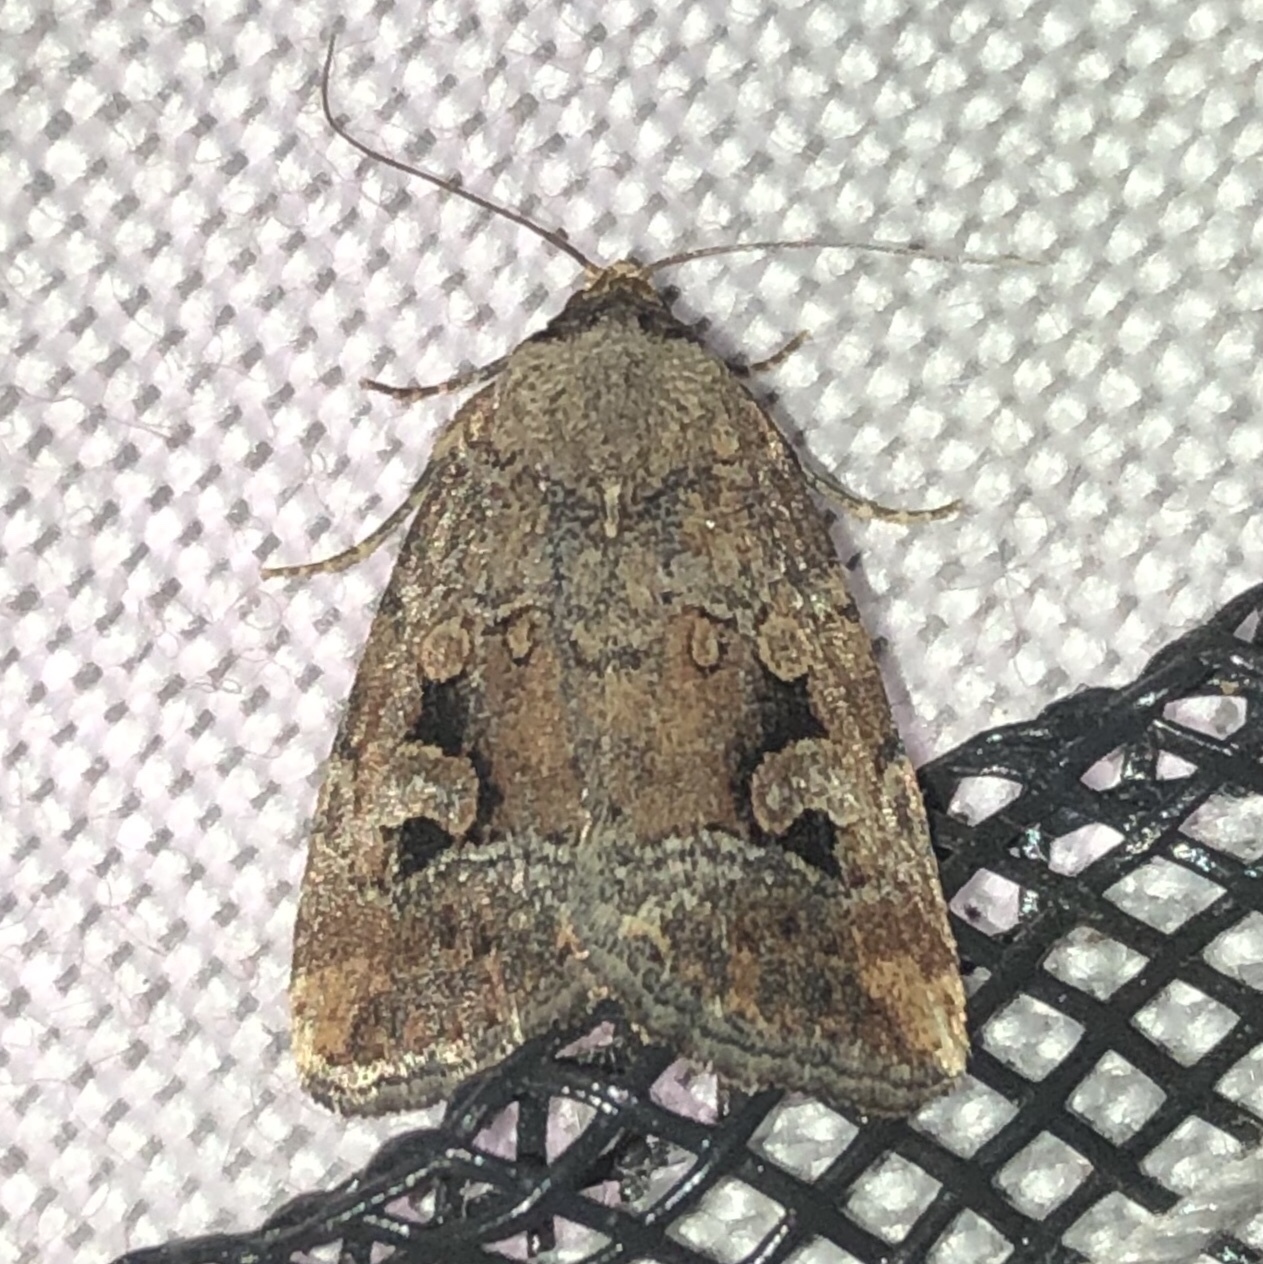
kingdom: Animalia
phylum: Arthropoda
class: Insecta
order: Lepidoptera
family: Noctuidae
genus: Elaphria
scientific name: Elaphria alapallida
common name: Pale-winged midget
